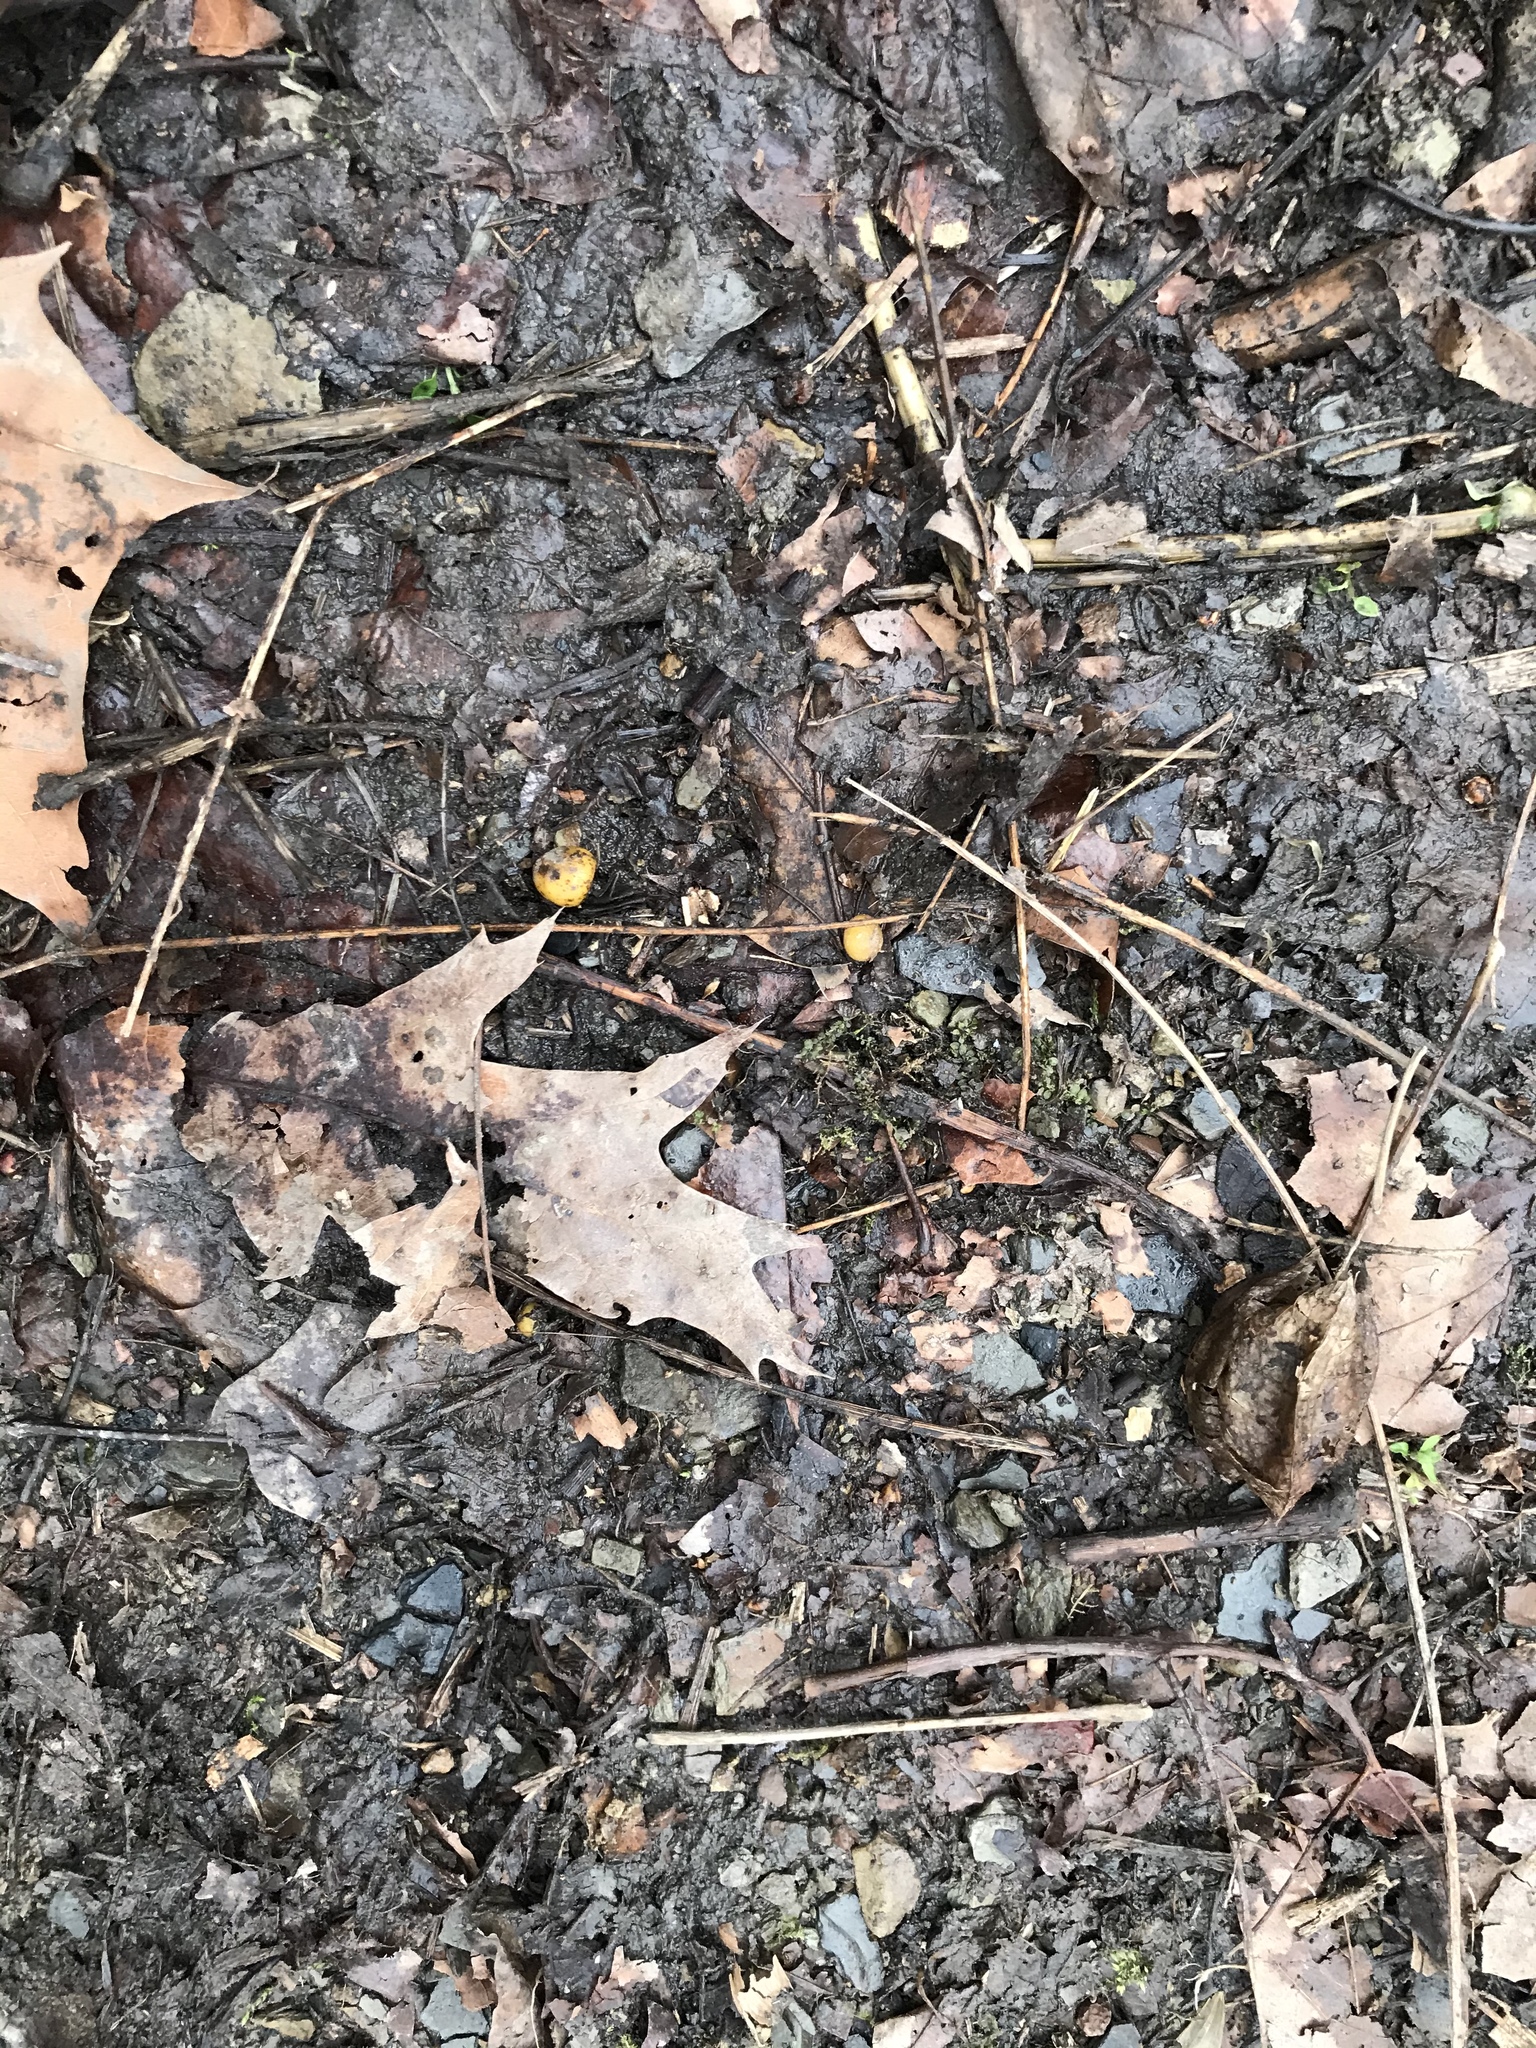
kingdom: Plantae
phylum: Tracheophyta
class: Magnoliopsida
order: Ranunculales
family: Papaveraceae
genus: Dicentra
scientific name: Dicentra canadensis
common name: Squirrel-corn
